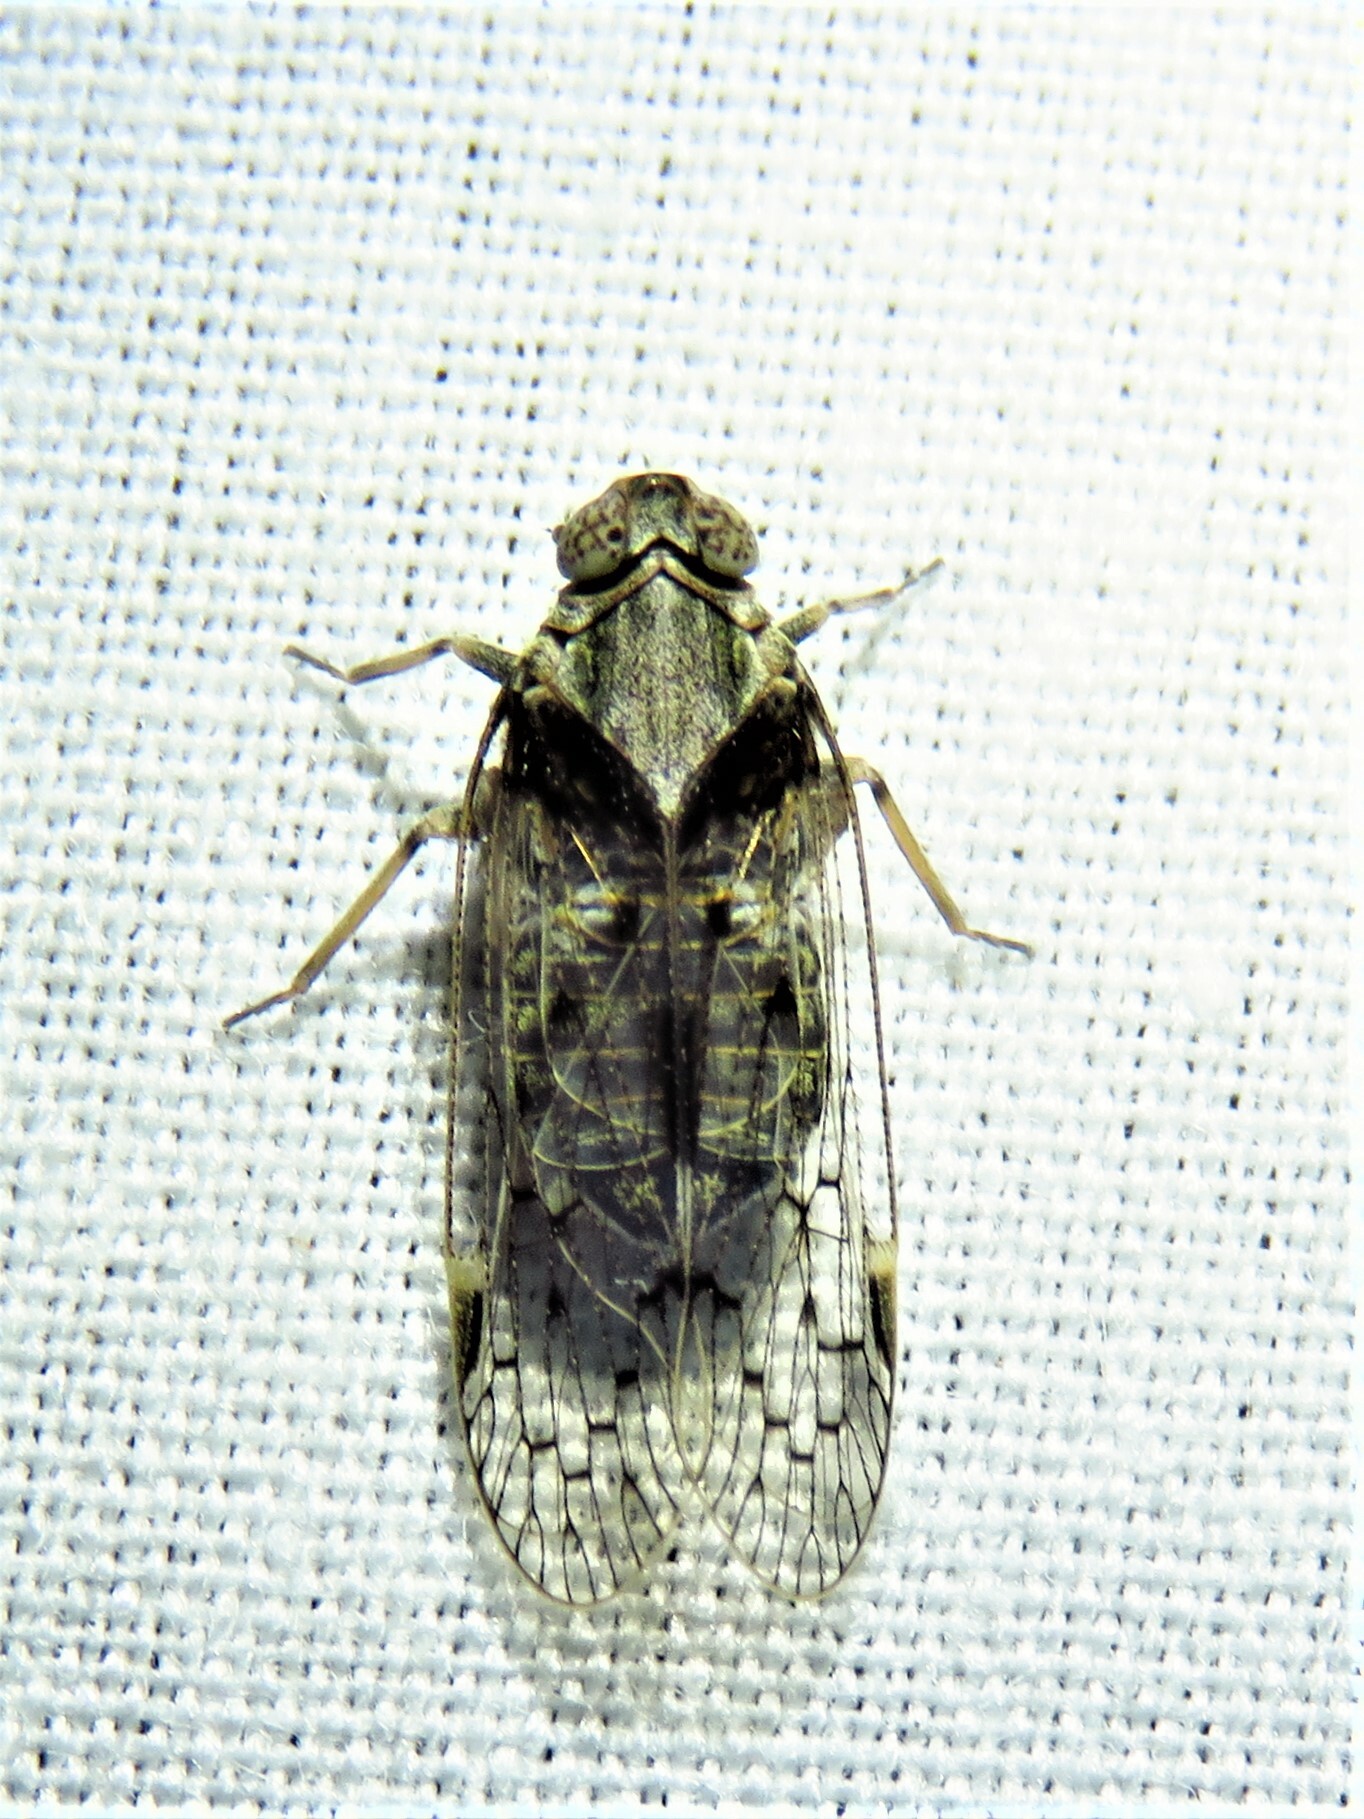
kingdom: Animalia
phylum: Arthropoda
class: Insecta
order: Hemiptera
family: Cixiidae
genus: Melanoliarus
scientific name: Melanoliarus aridus
